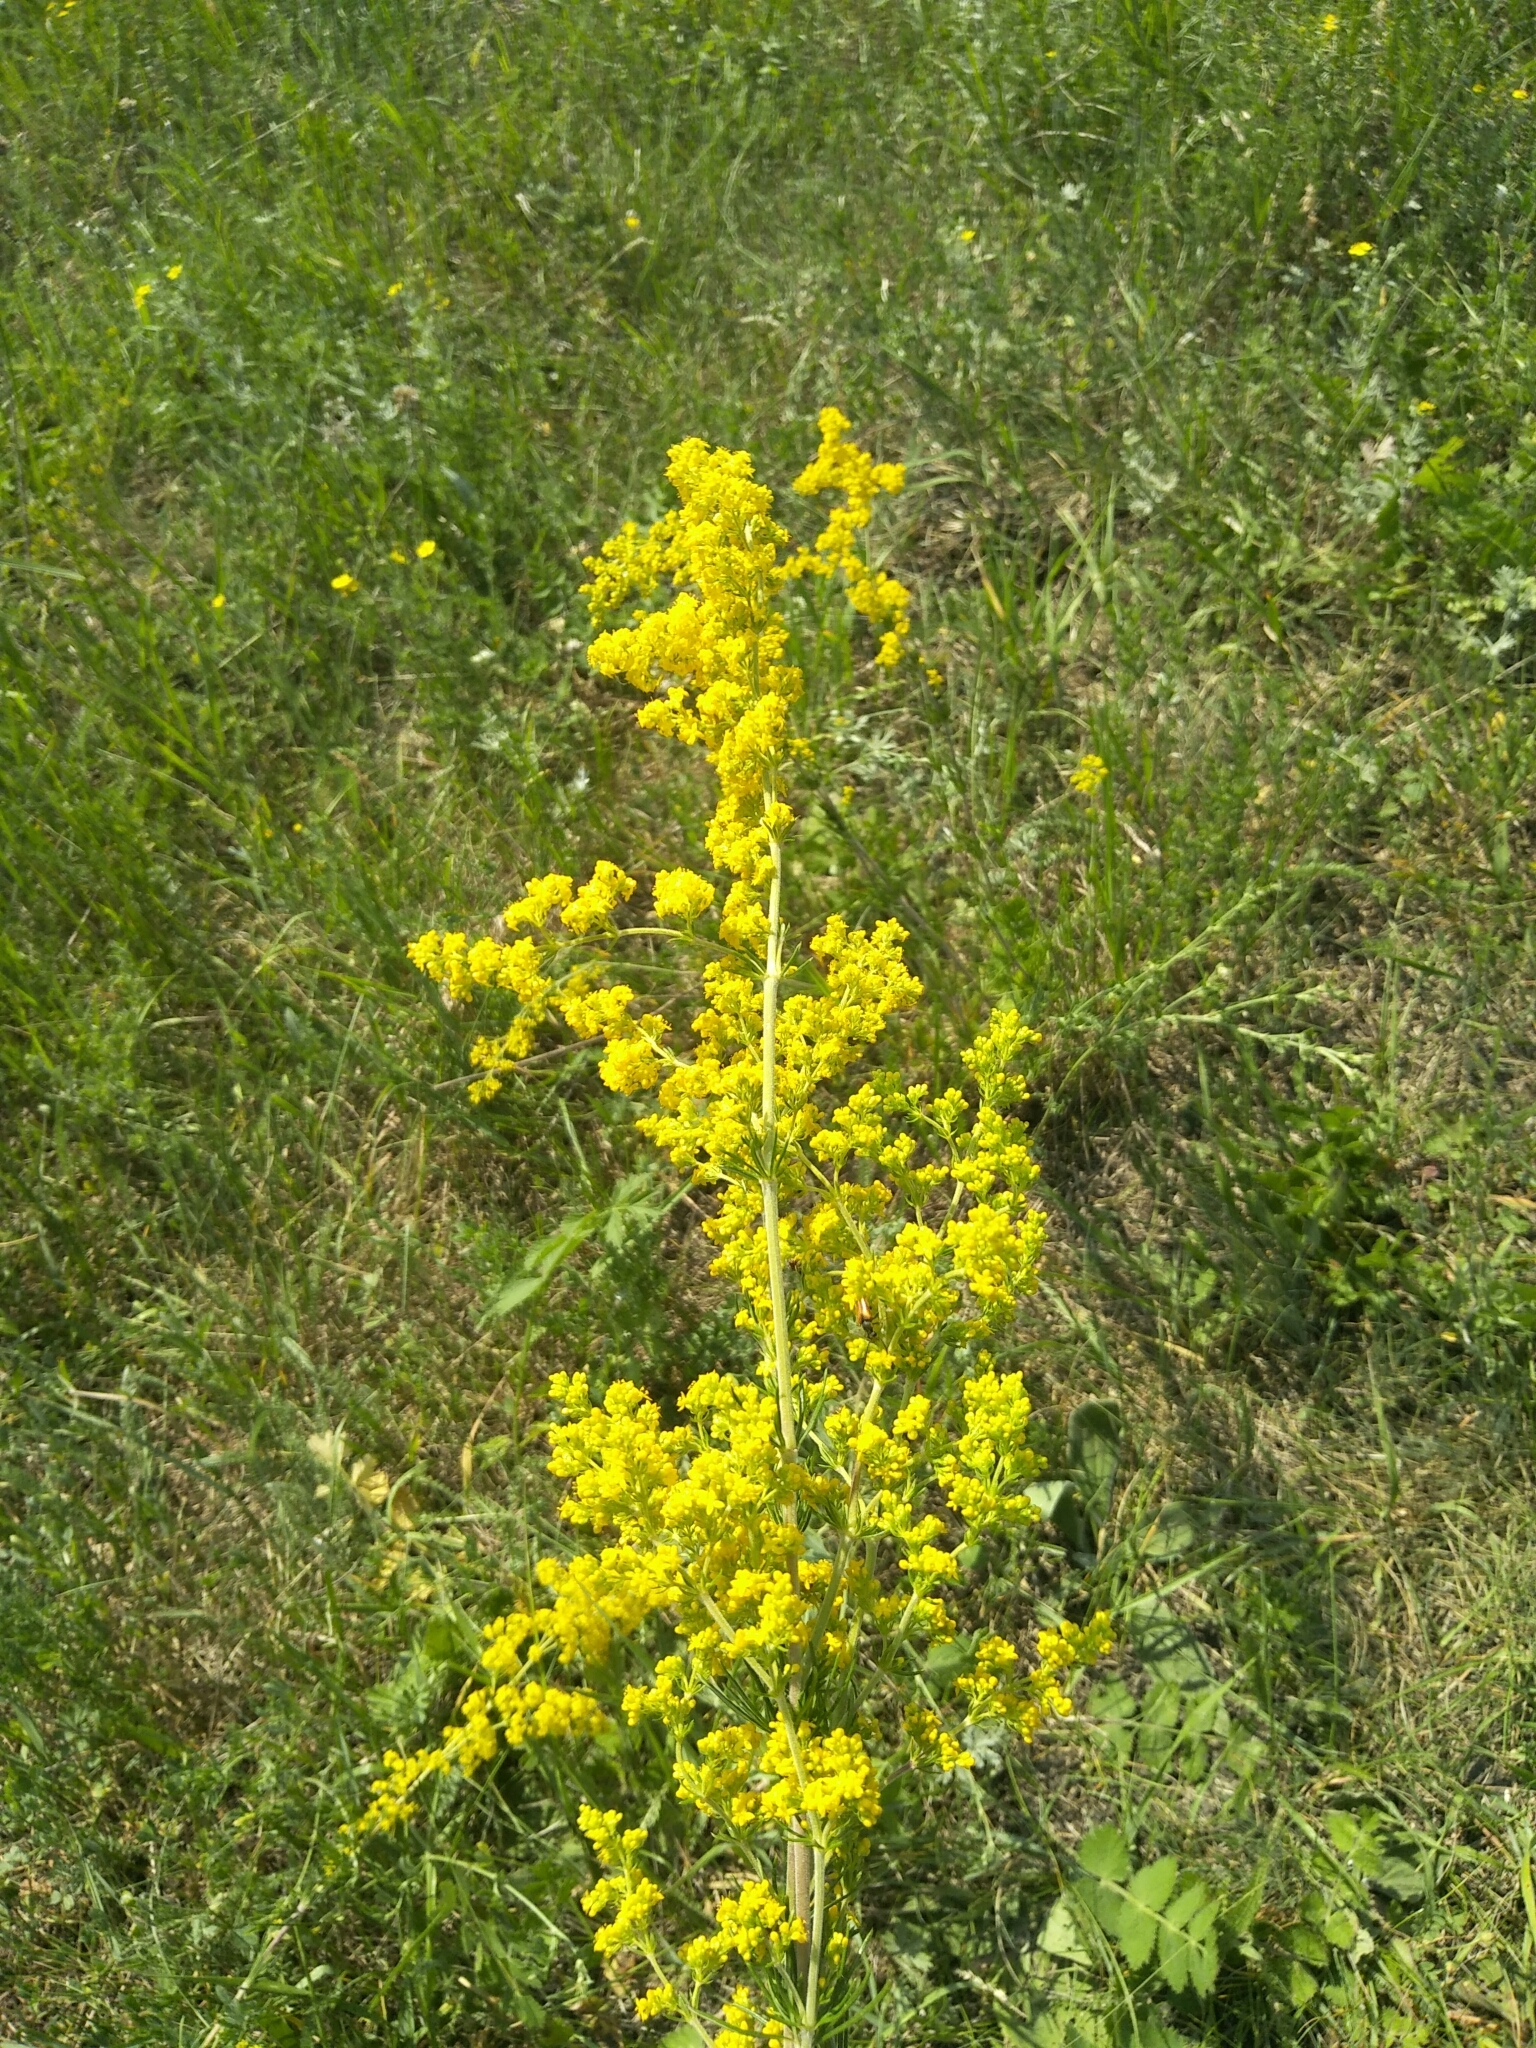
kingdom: Plantae
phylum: Tracheophyta
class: Magnoliopsida
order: Gentianales
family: Rubiaceae
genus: Galium
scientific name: Galium verum
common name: Lady's bedstraw
